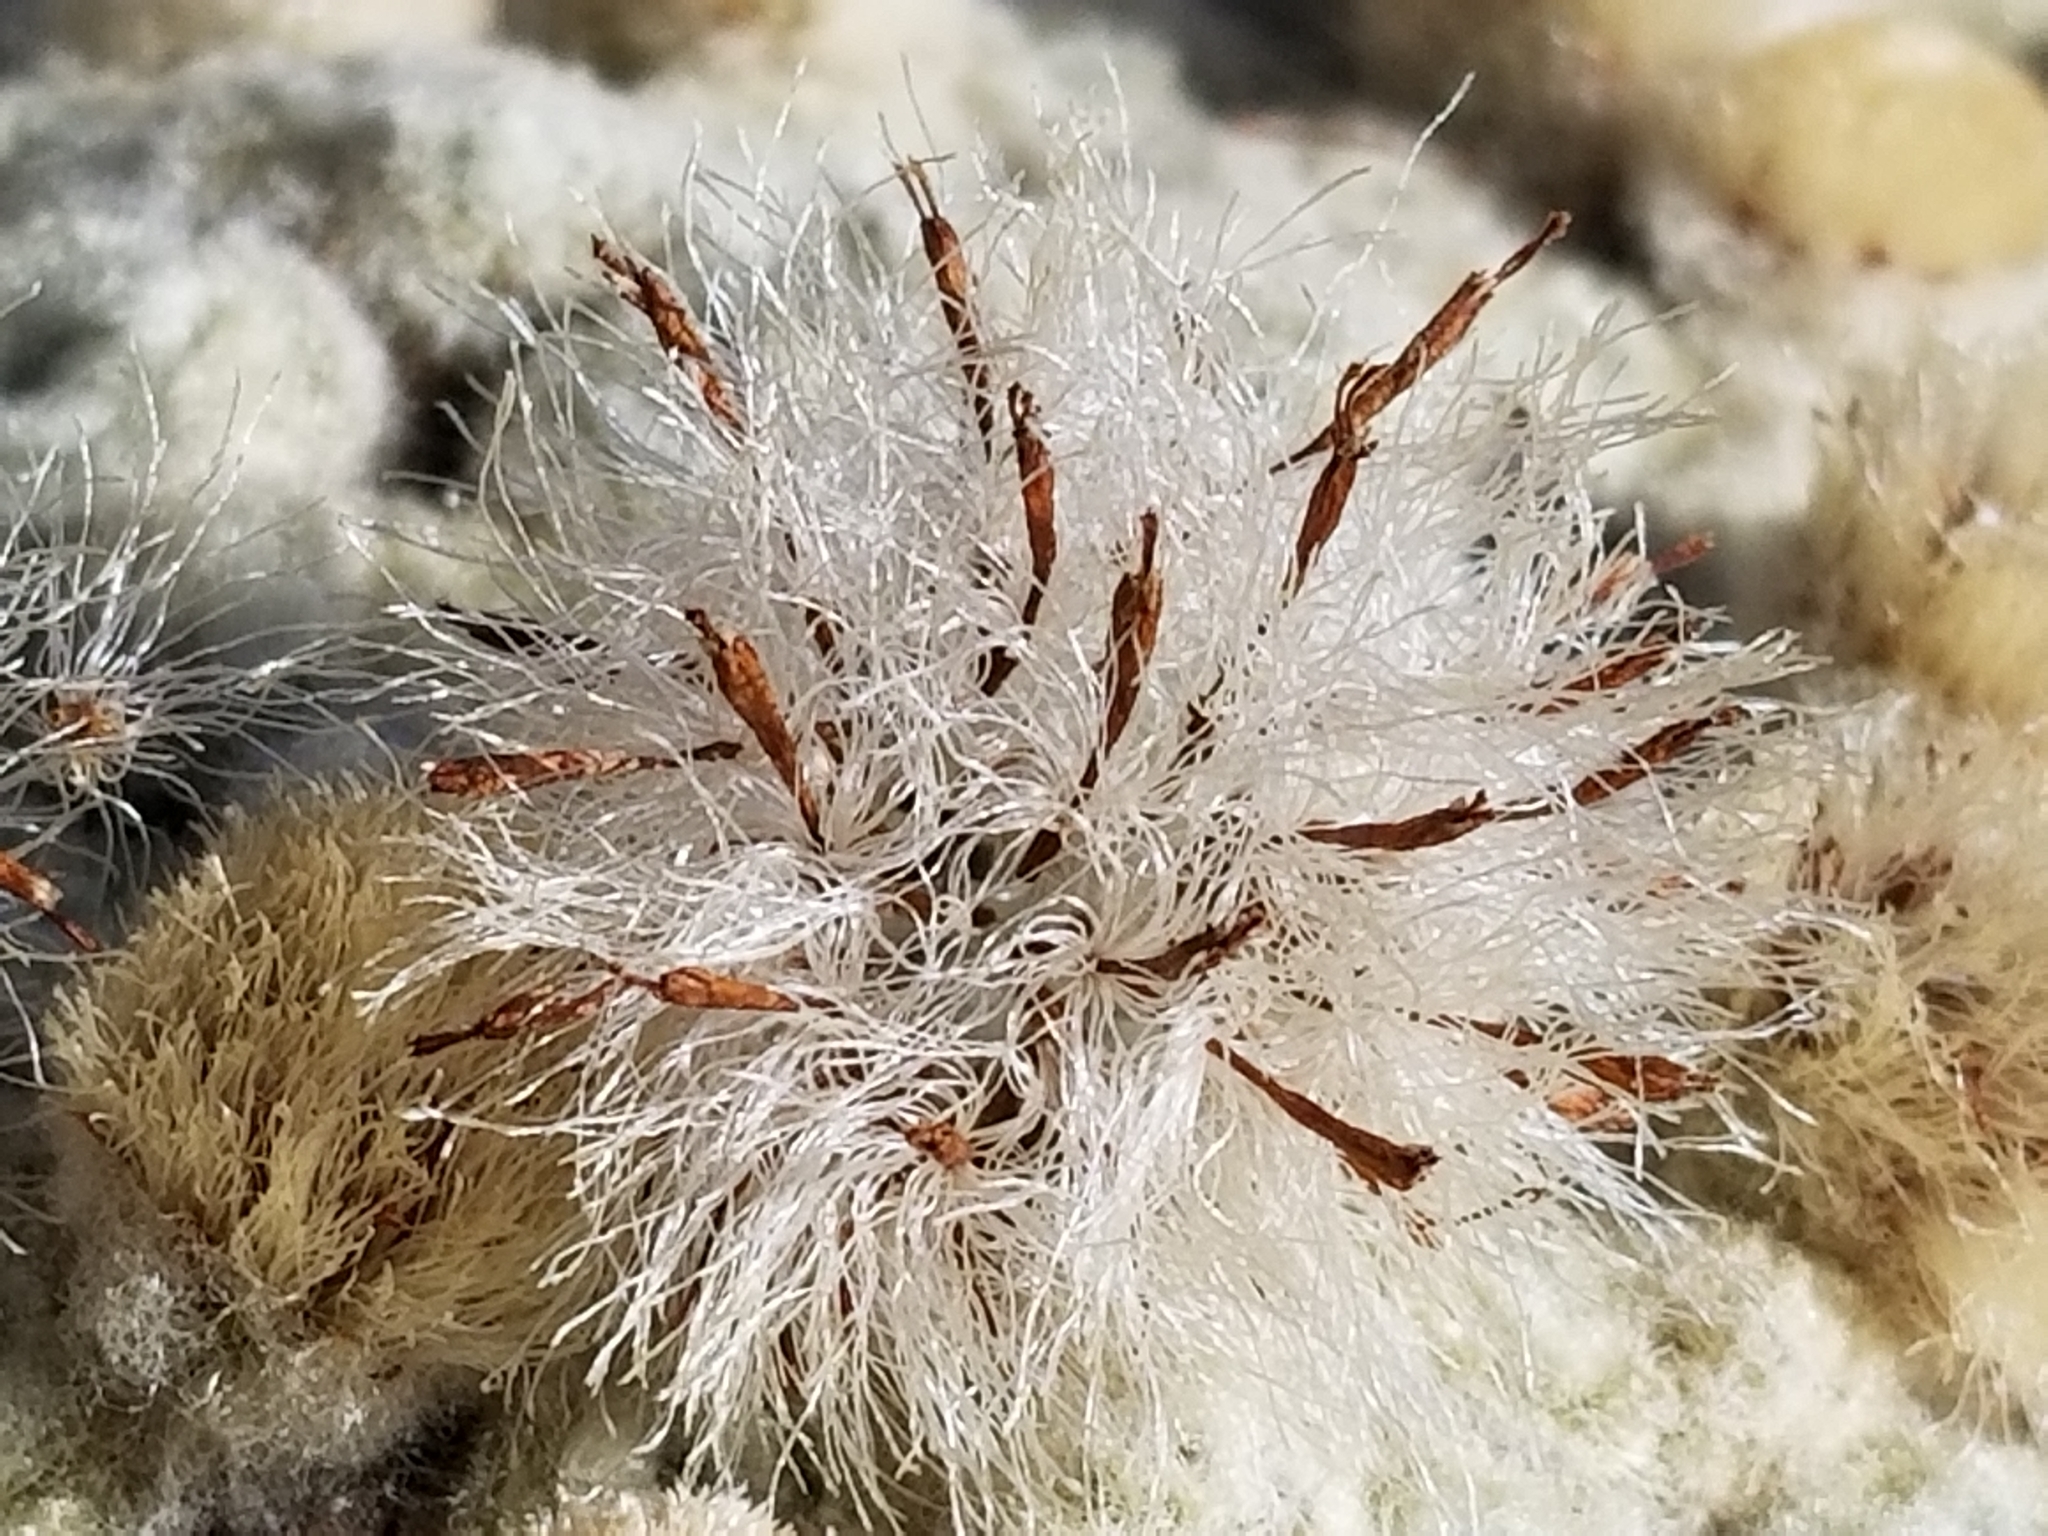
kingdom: Plantae
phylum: Tracheophyta
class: Magnoliopsida
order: Asterales
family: Asteraceae
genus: Haastia
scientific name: Haastia pulvinaris
